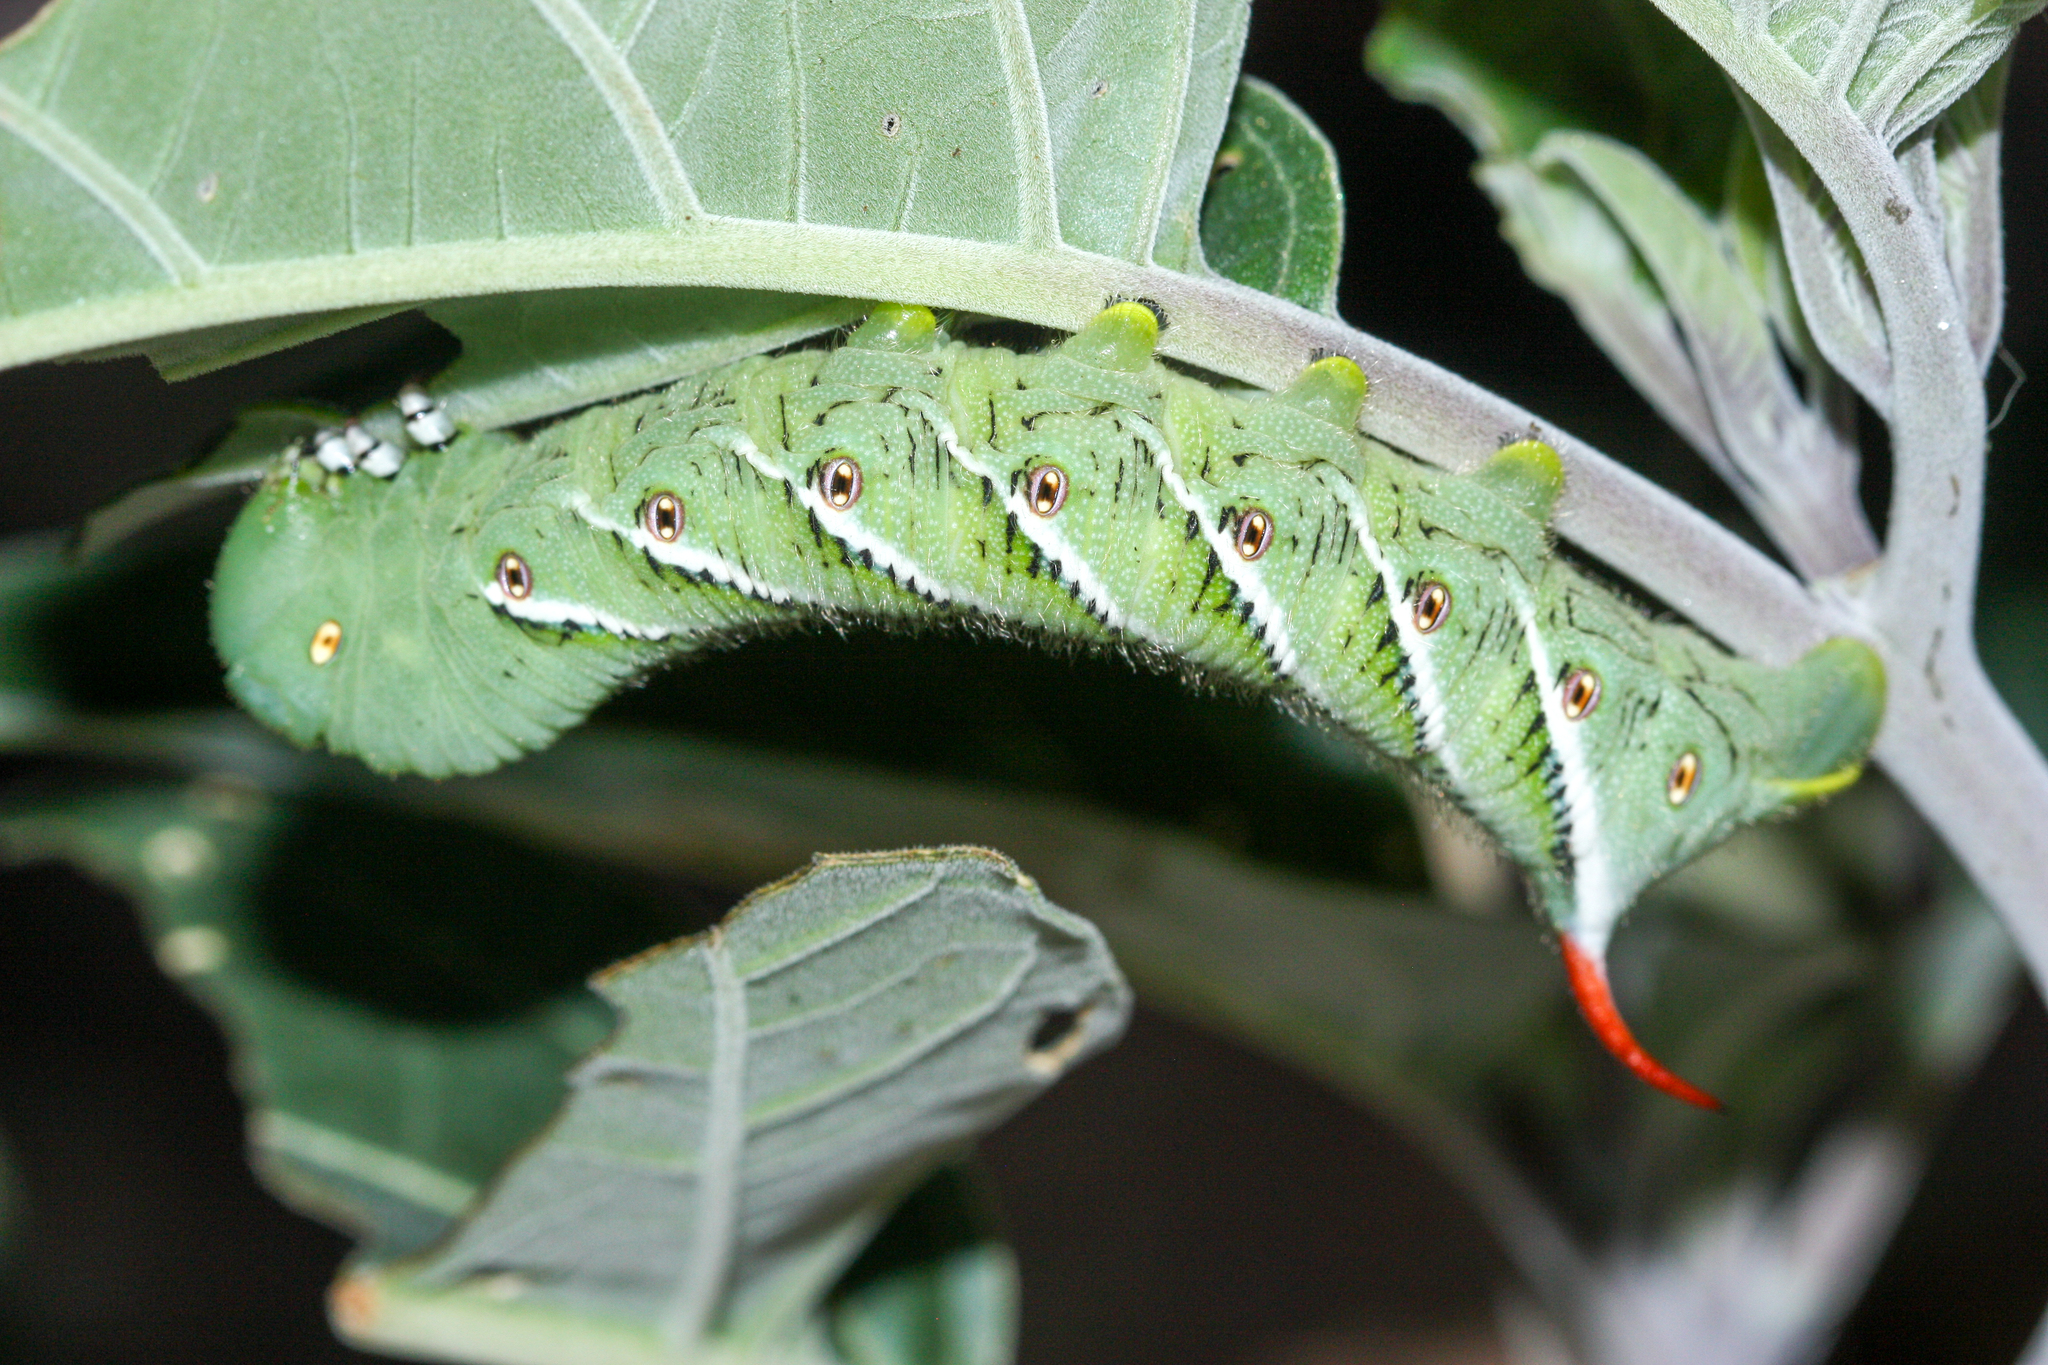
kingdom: Animalia
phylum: Arthropoda
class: Insecta
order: Lepidoptera
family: Sphingidae
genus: Manduca
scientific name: Manduca sexta
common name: Carolina sphinx
